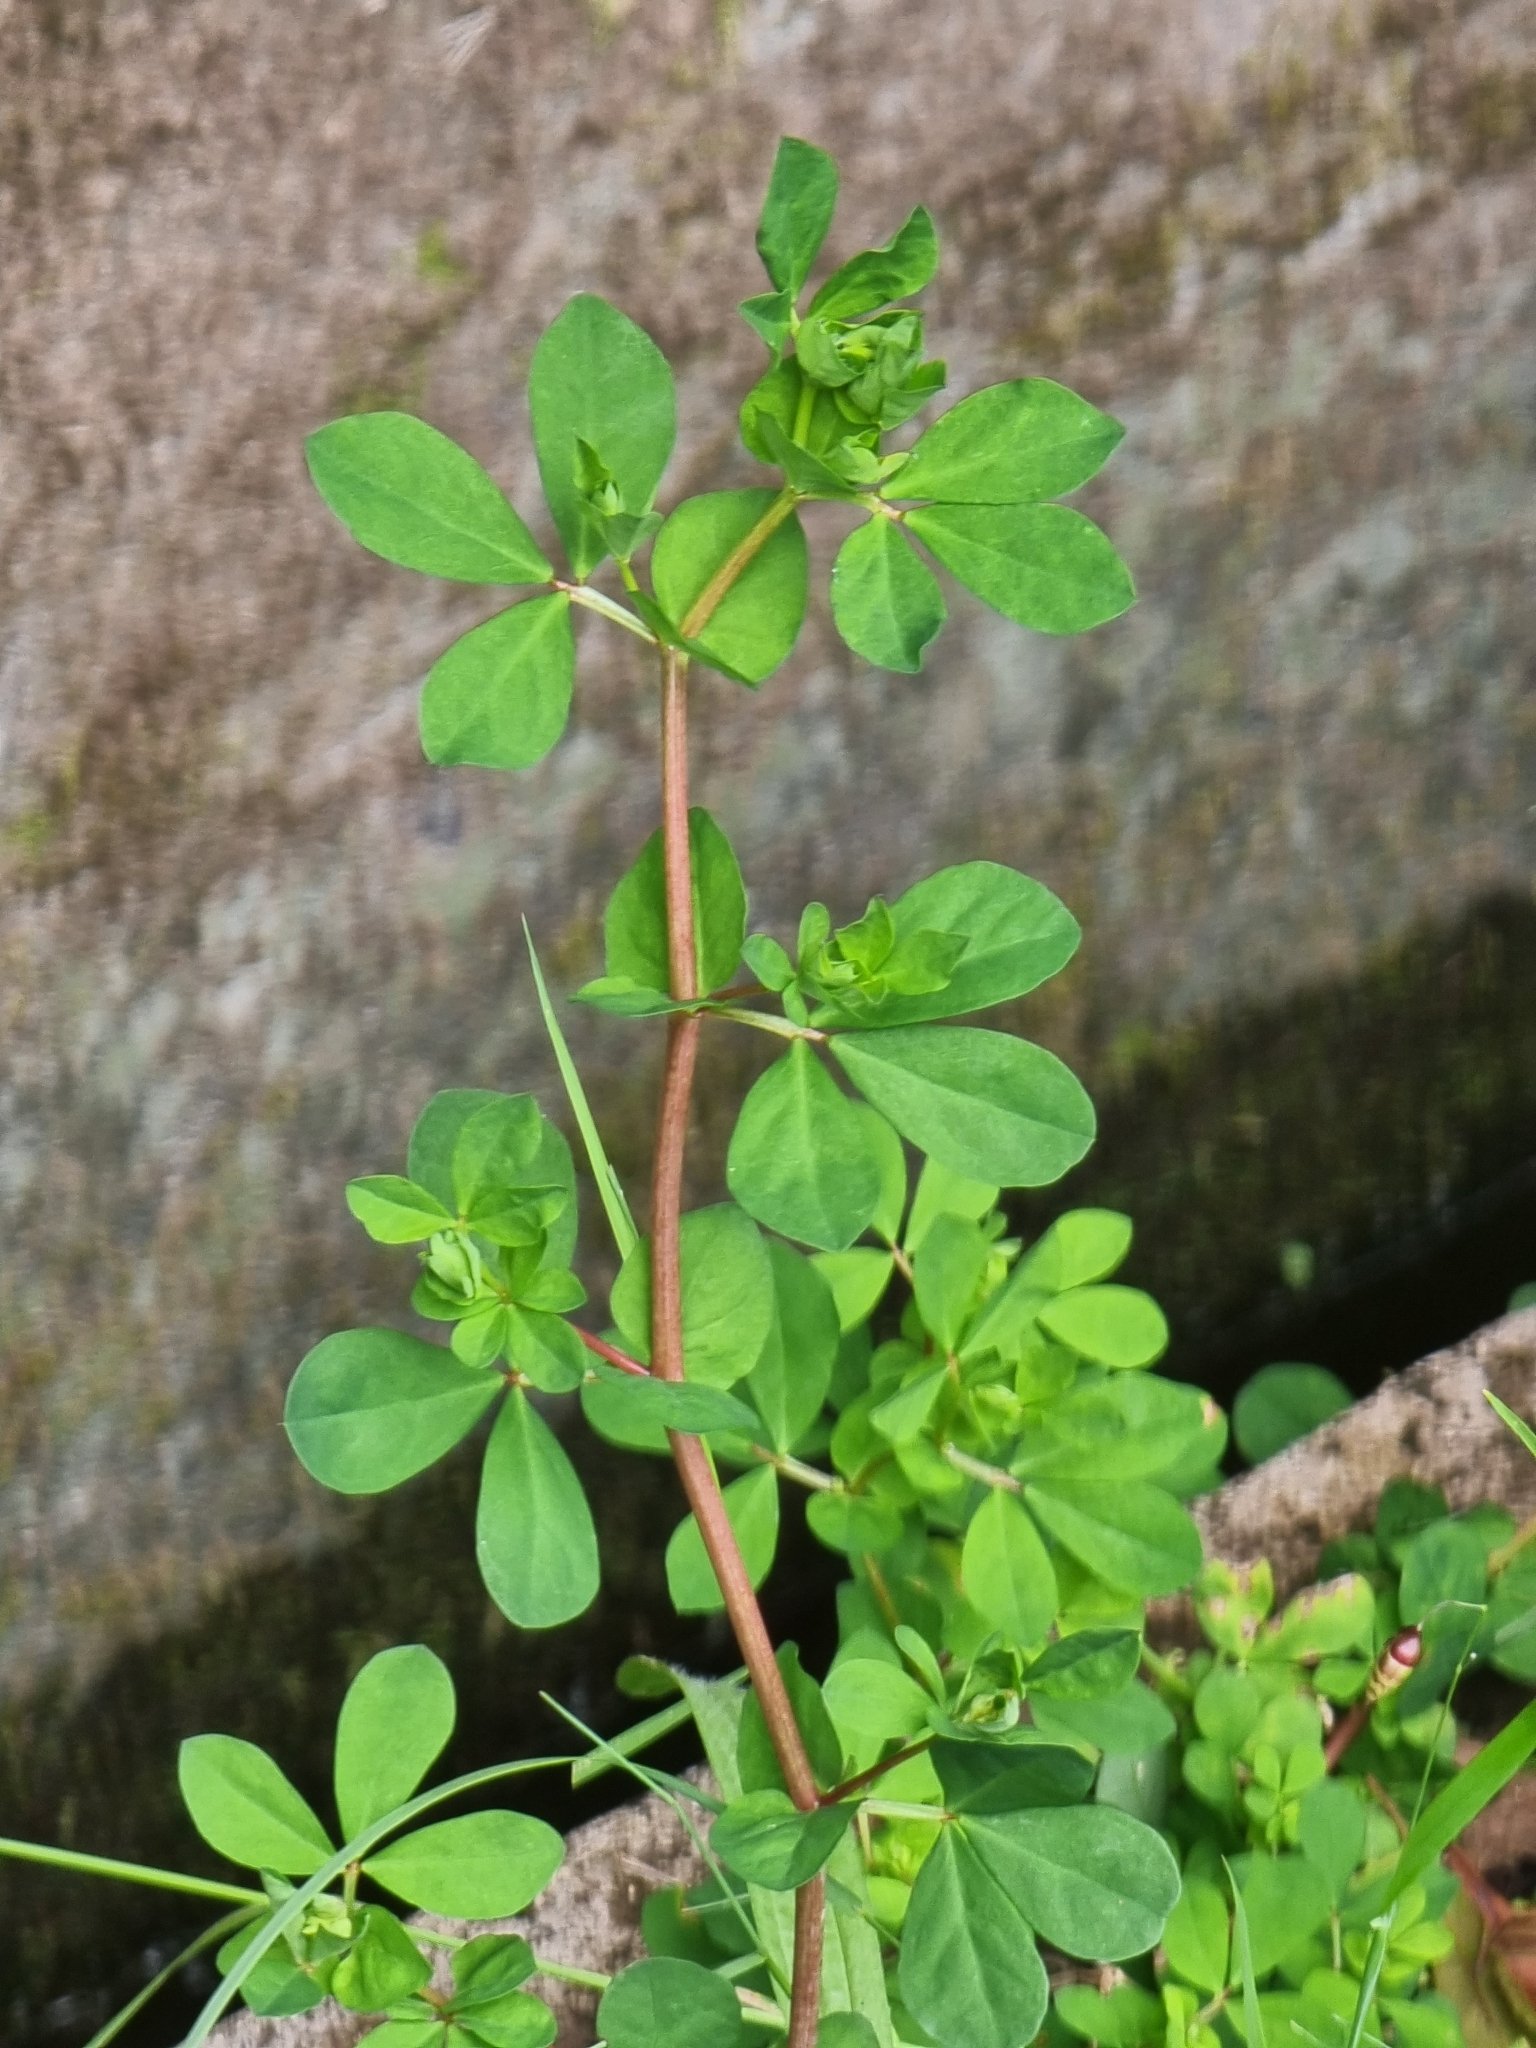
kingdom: Plantae
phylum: Tracheophyta
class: Magnoliopsida
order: Fabales
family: Fabaceae
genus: Lotus
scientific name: Lotus pedunculatus
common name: Greater birdsfoot-trefoil
